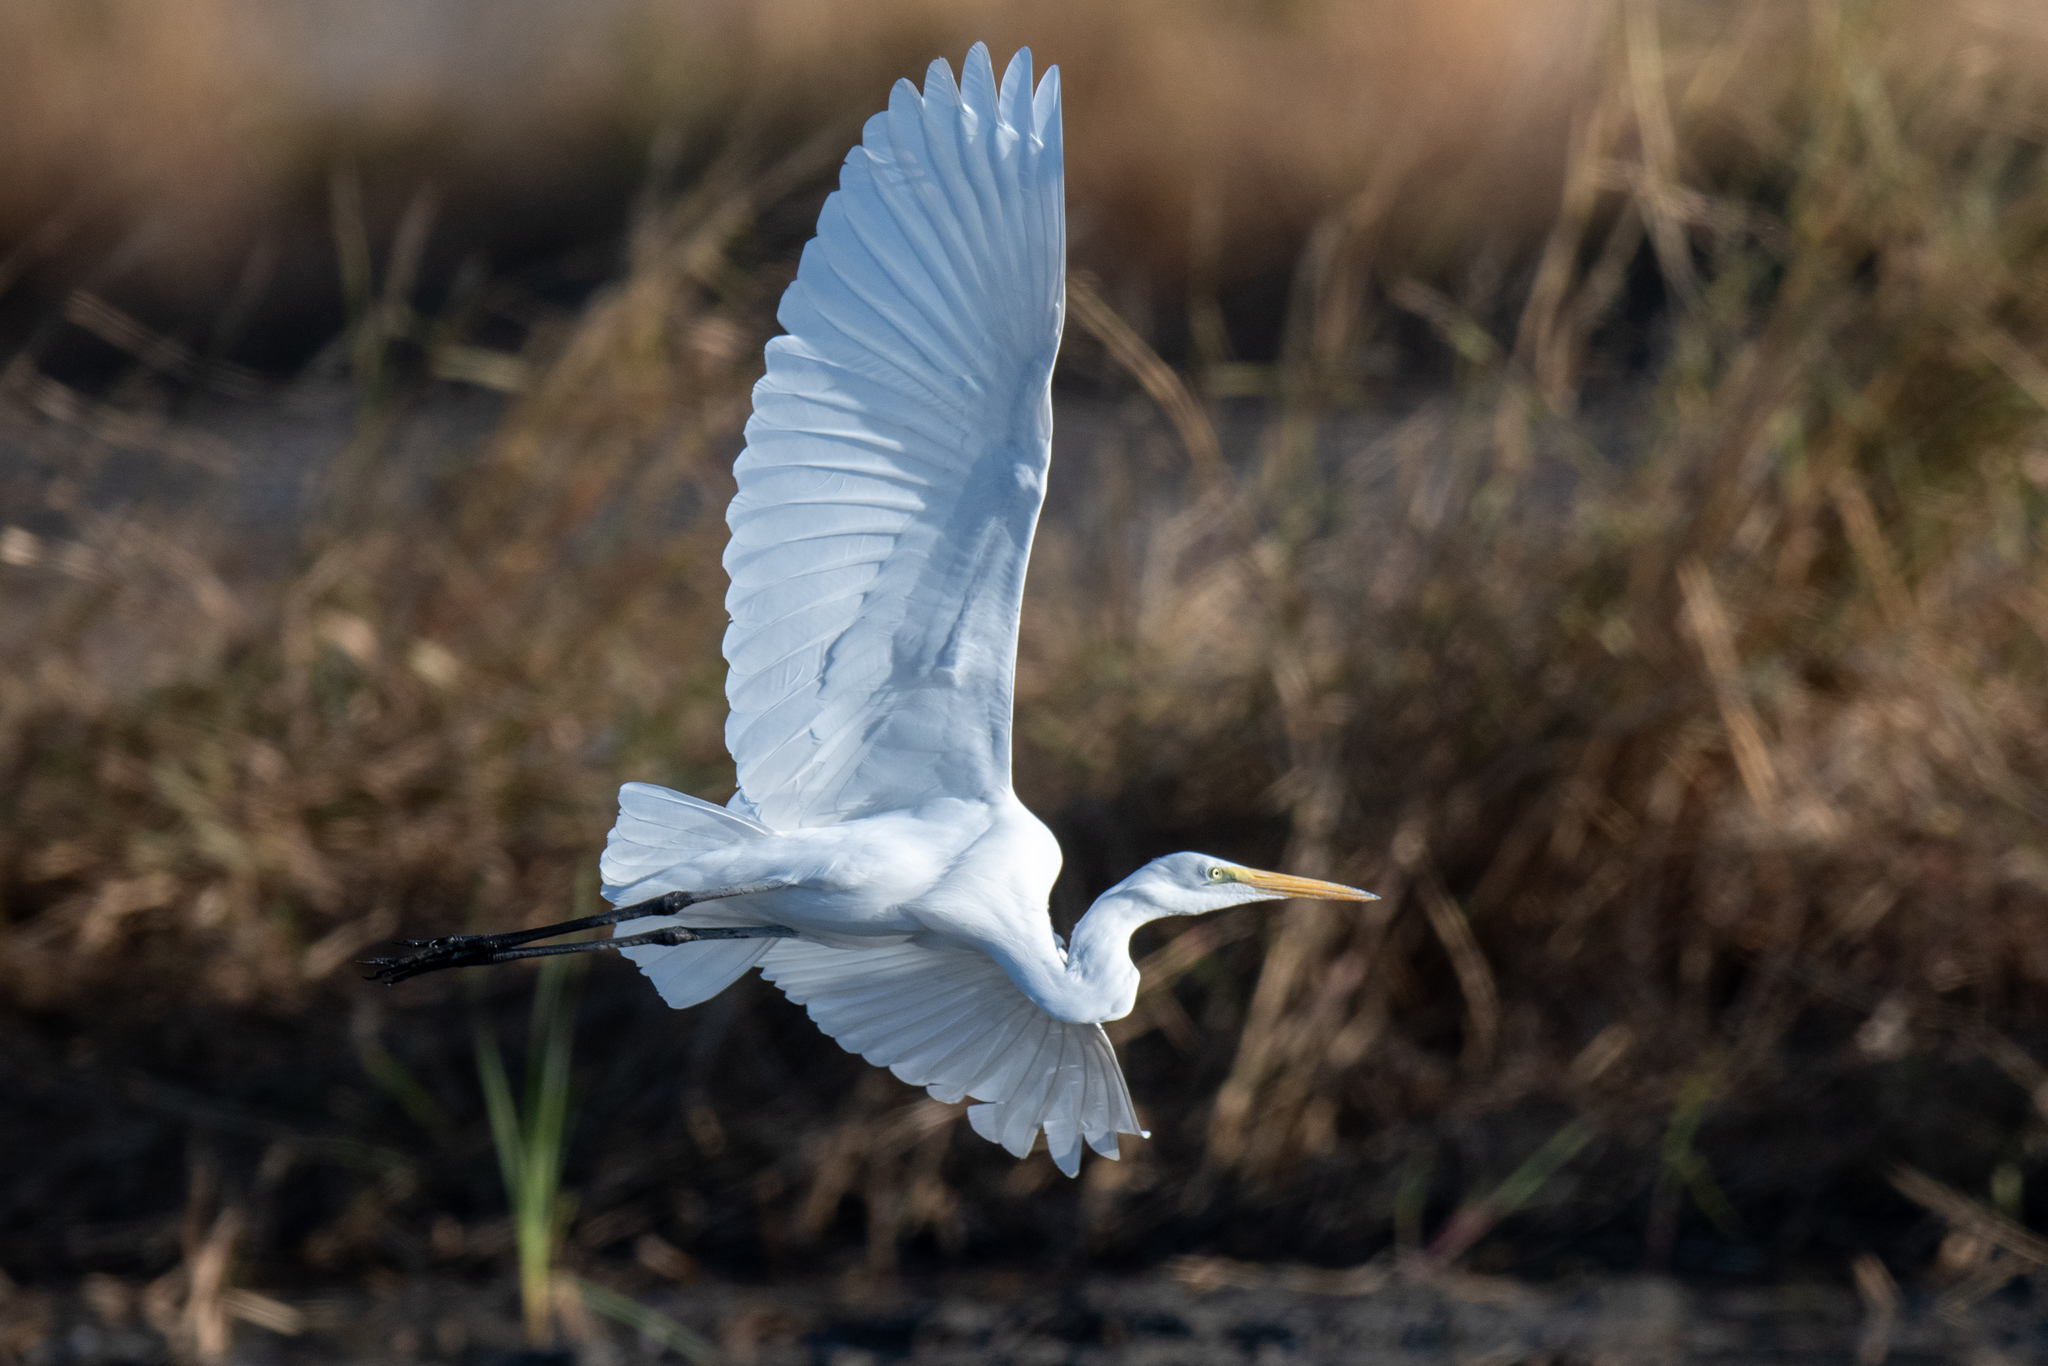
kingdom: Animalia
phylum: Chordata
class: Aves
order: Pelecaniformes
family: Ardeidae
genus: Ardea
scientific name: Ardea alba
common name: Great egret
